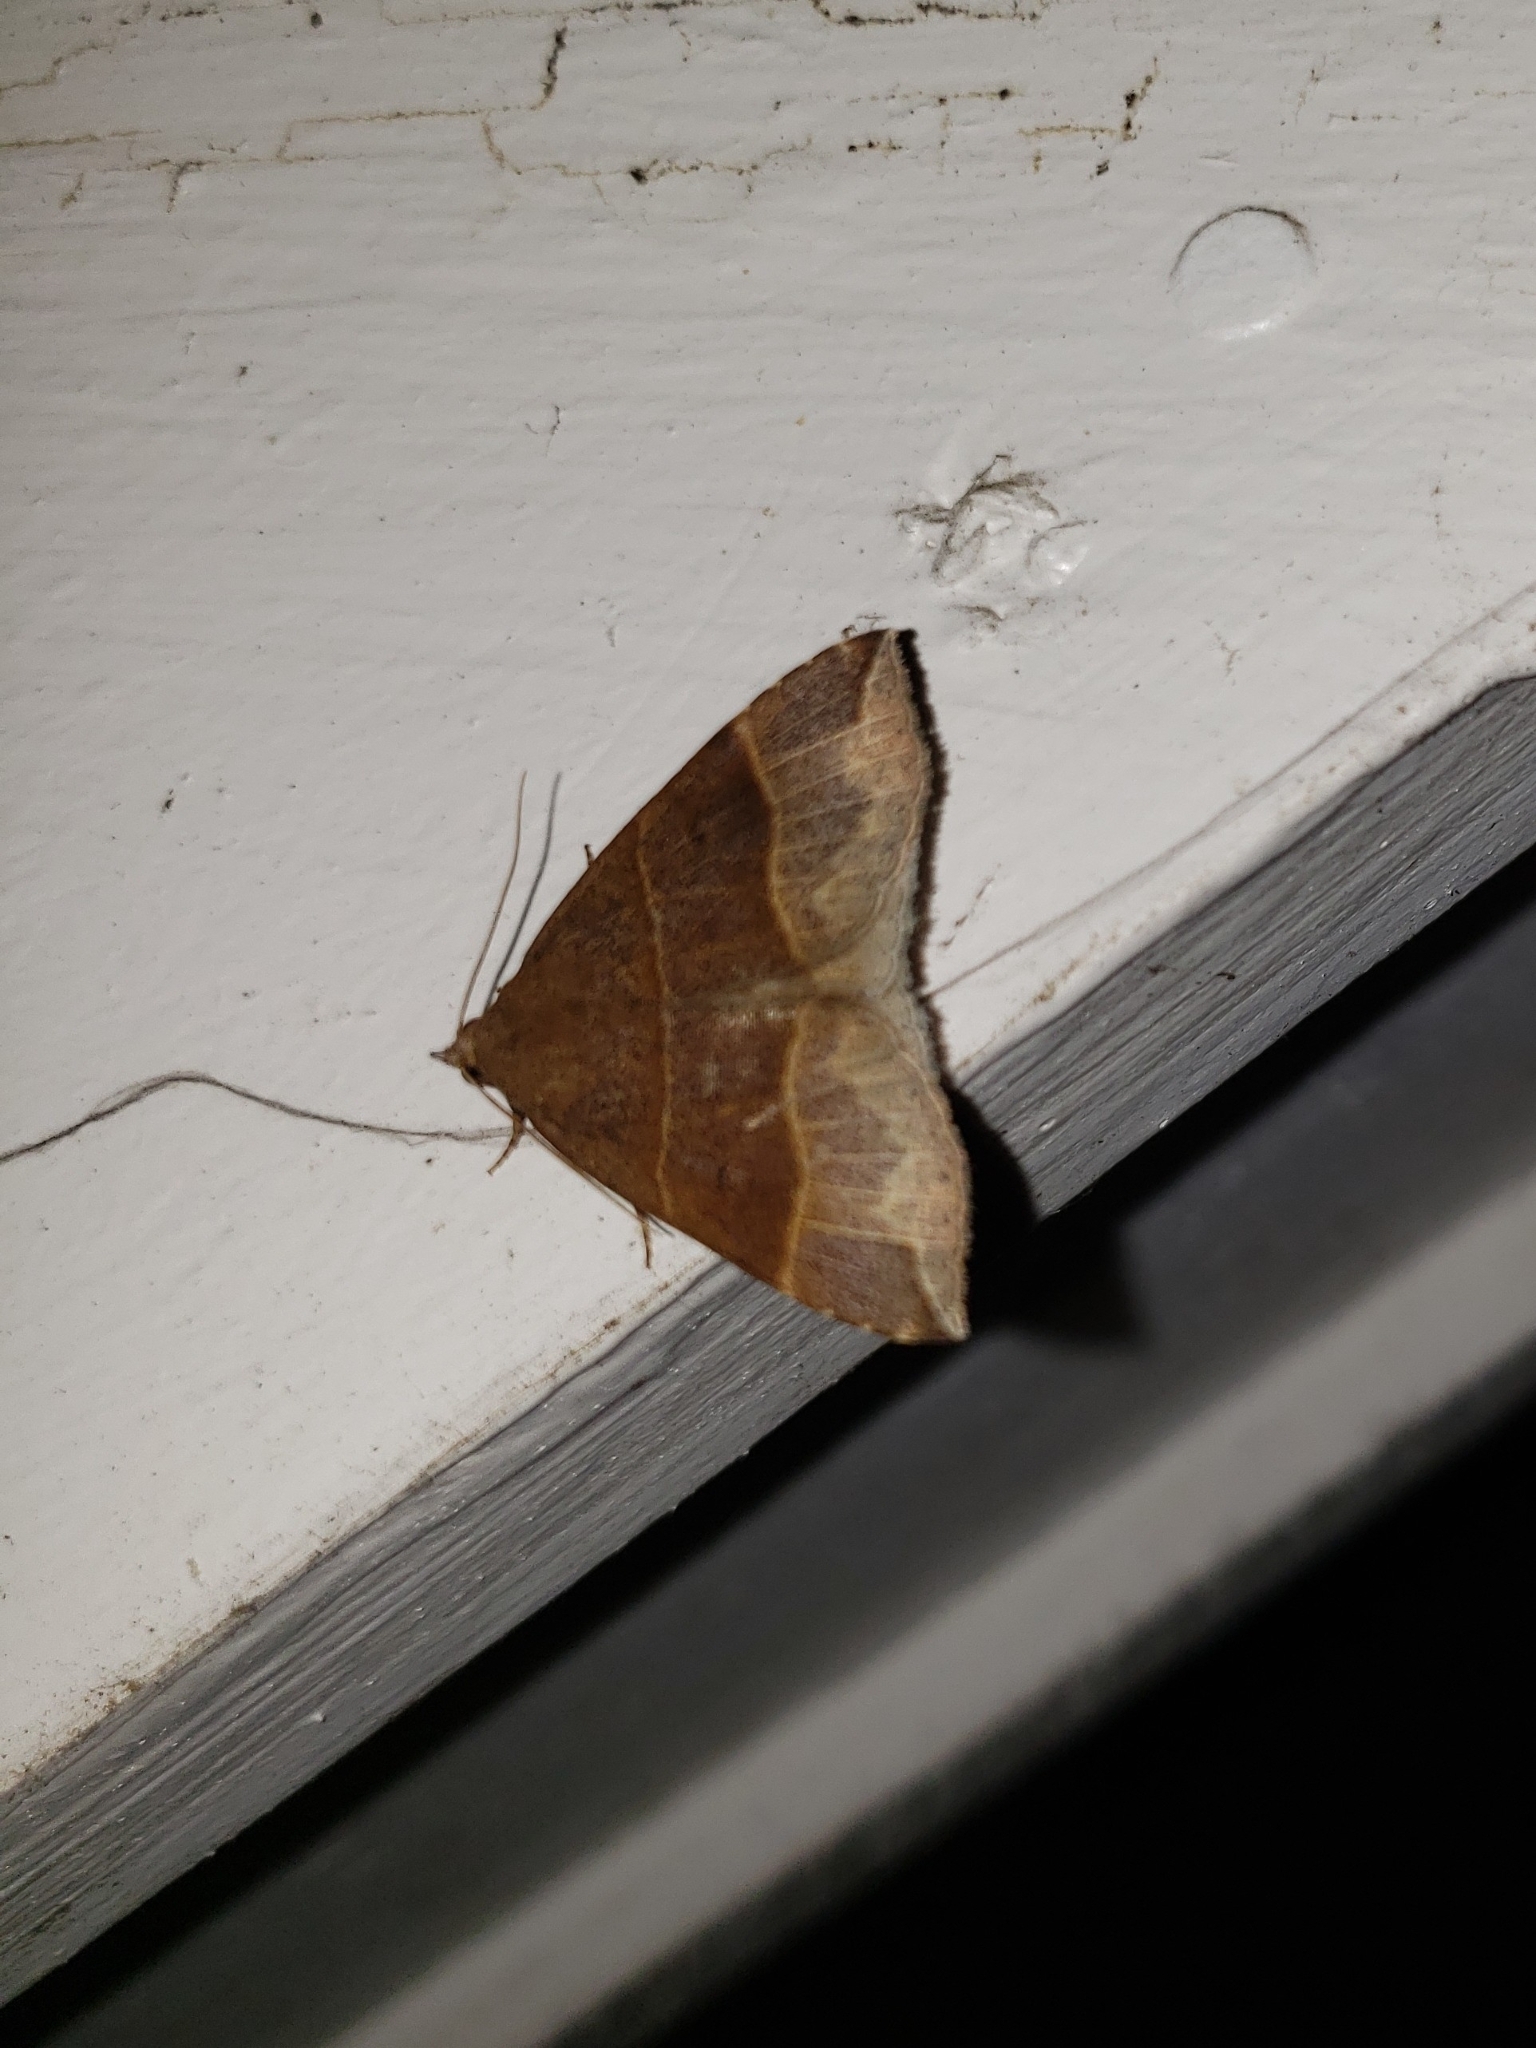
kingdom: Animalia
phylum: Arthropoda
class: Insecta
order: Lepidoptera
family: Erebidae
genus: Parallelia
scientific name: Parallelia bistriaris
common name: Maple looper moth
